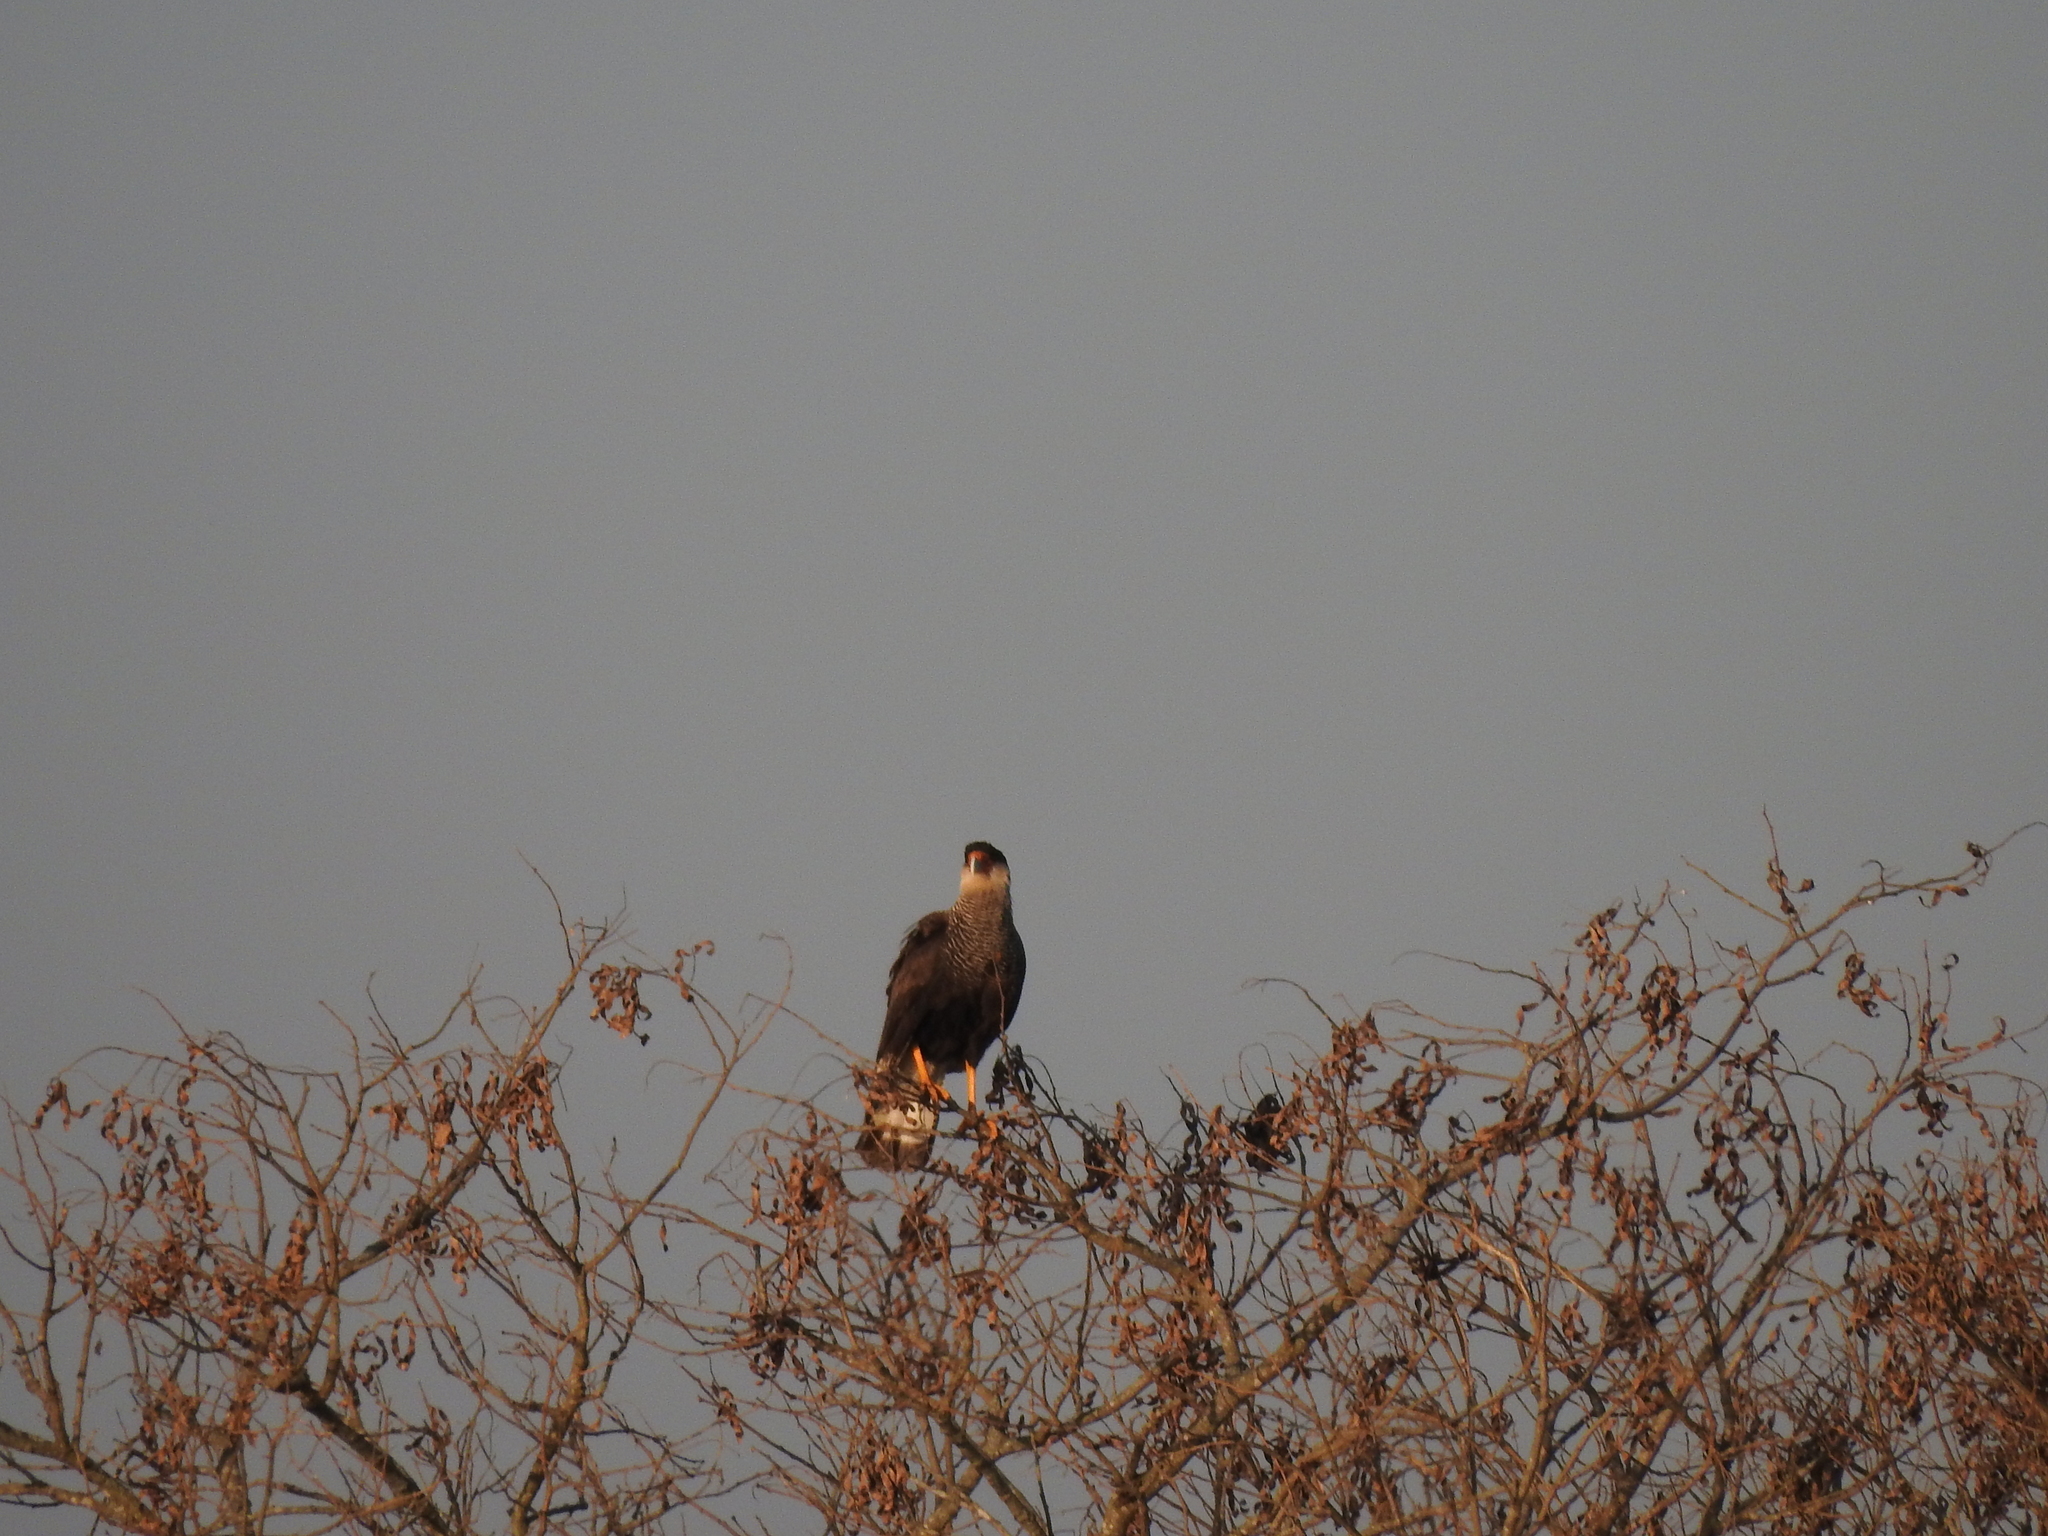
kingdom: Animalia
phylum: Chordata
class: Aves
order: Falconiformes
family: Falconidae
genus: Caracara
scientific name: Caracara plancus
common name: Southern caracara
